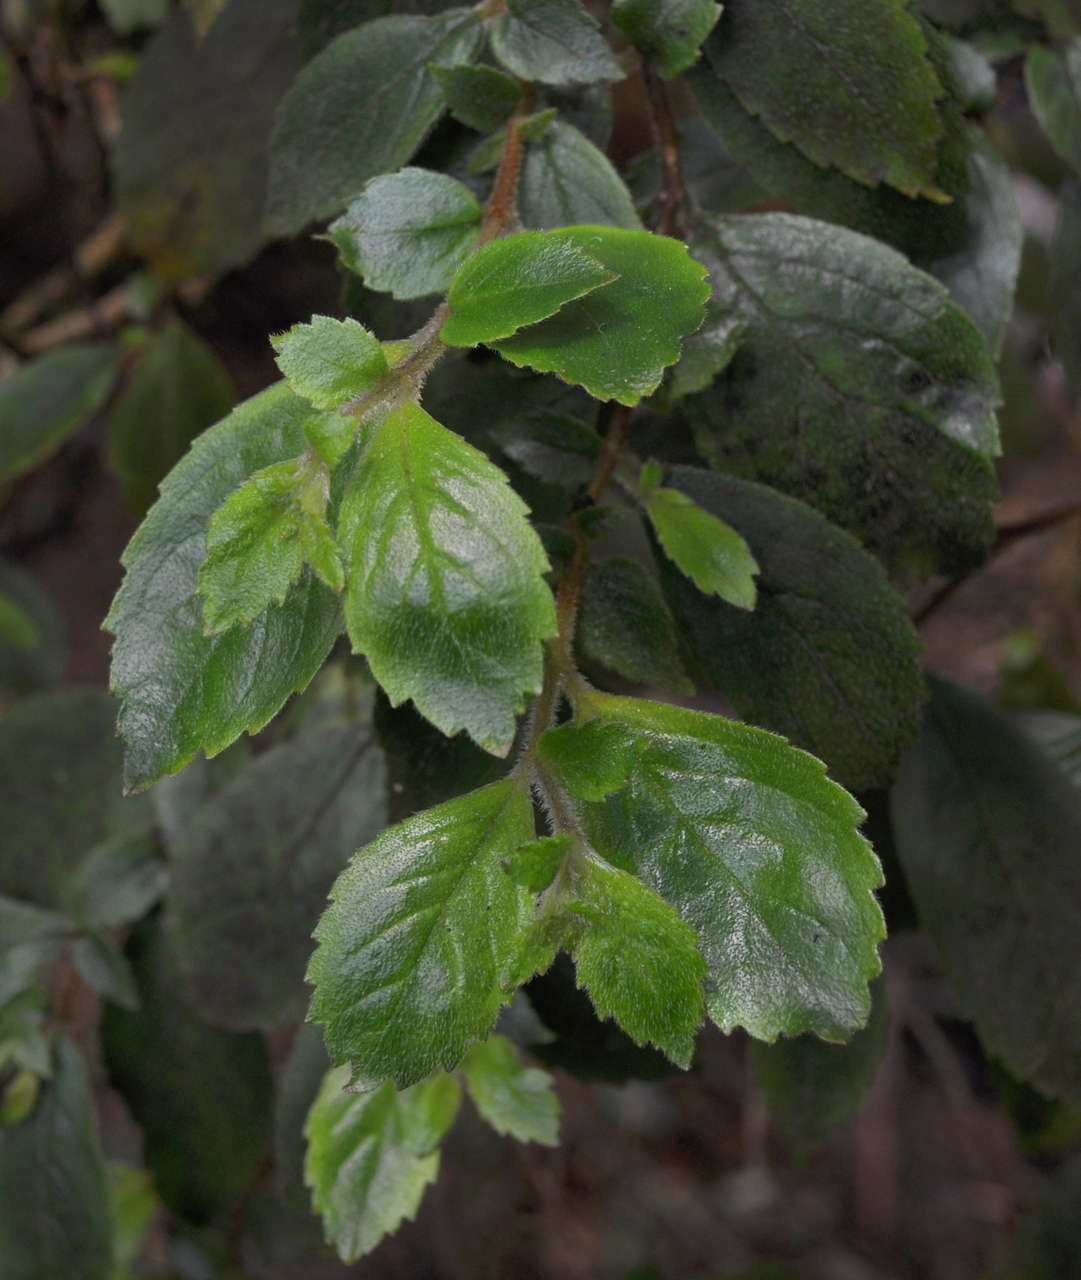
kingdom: Plantae
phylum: Tracheophyta
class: Magnoliopsida
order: Lamiales
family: Gesneriaceae
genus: Fieldia
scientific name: Fieldia australis
